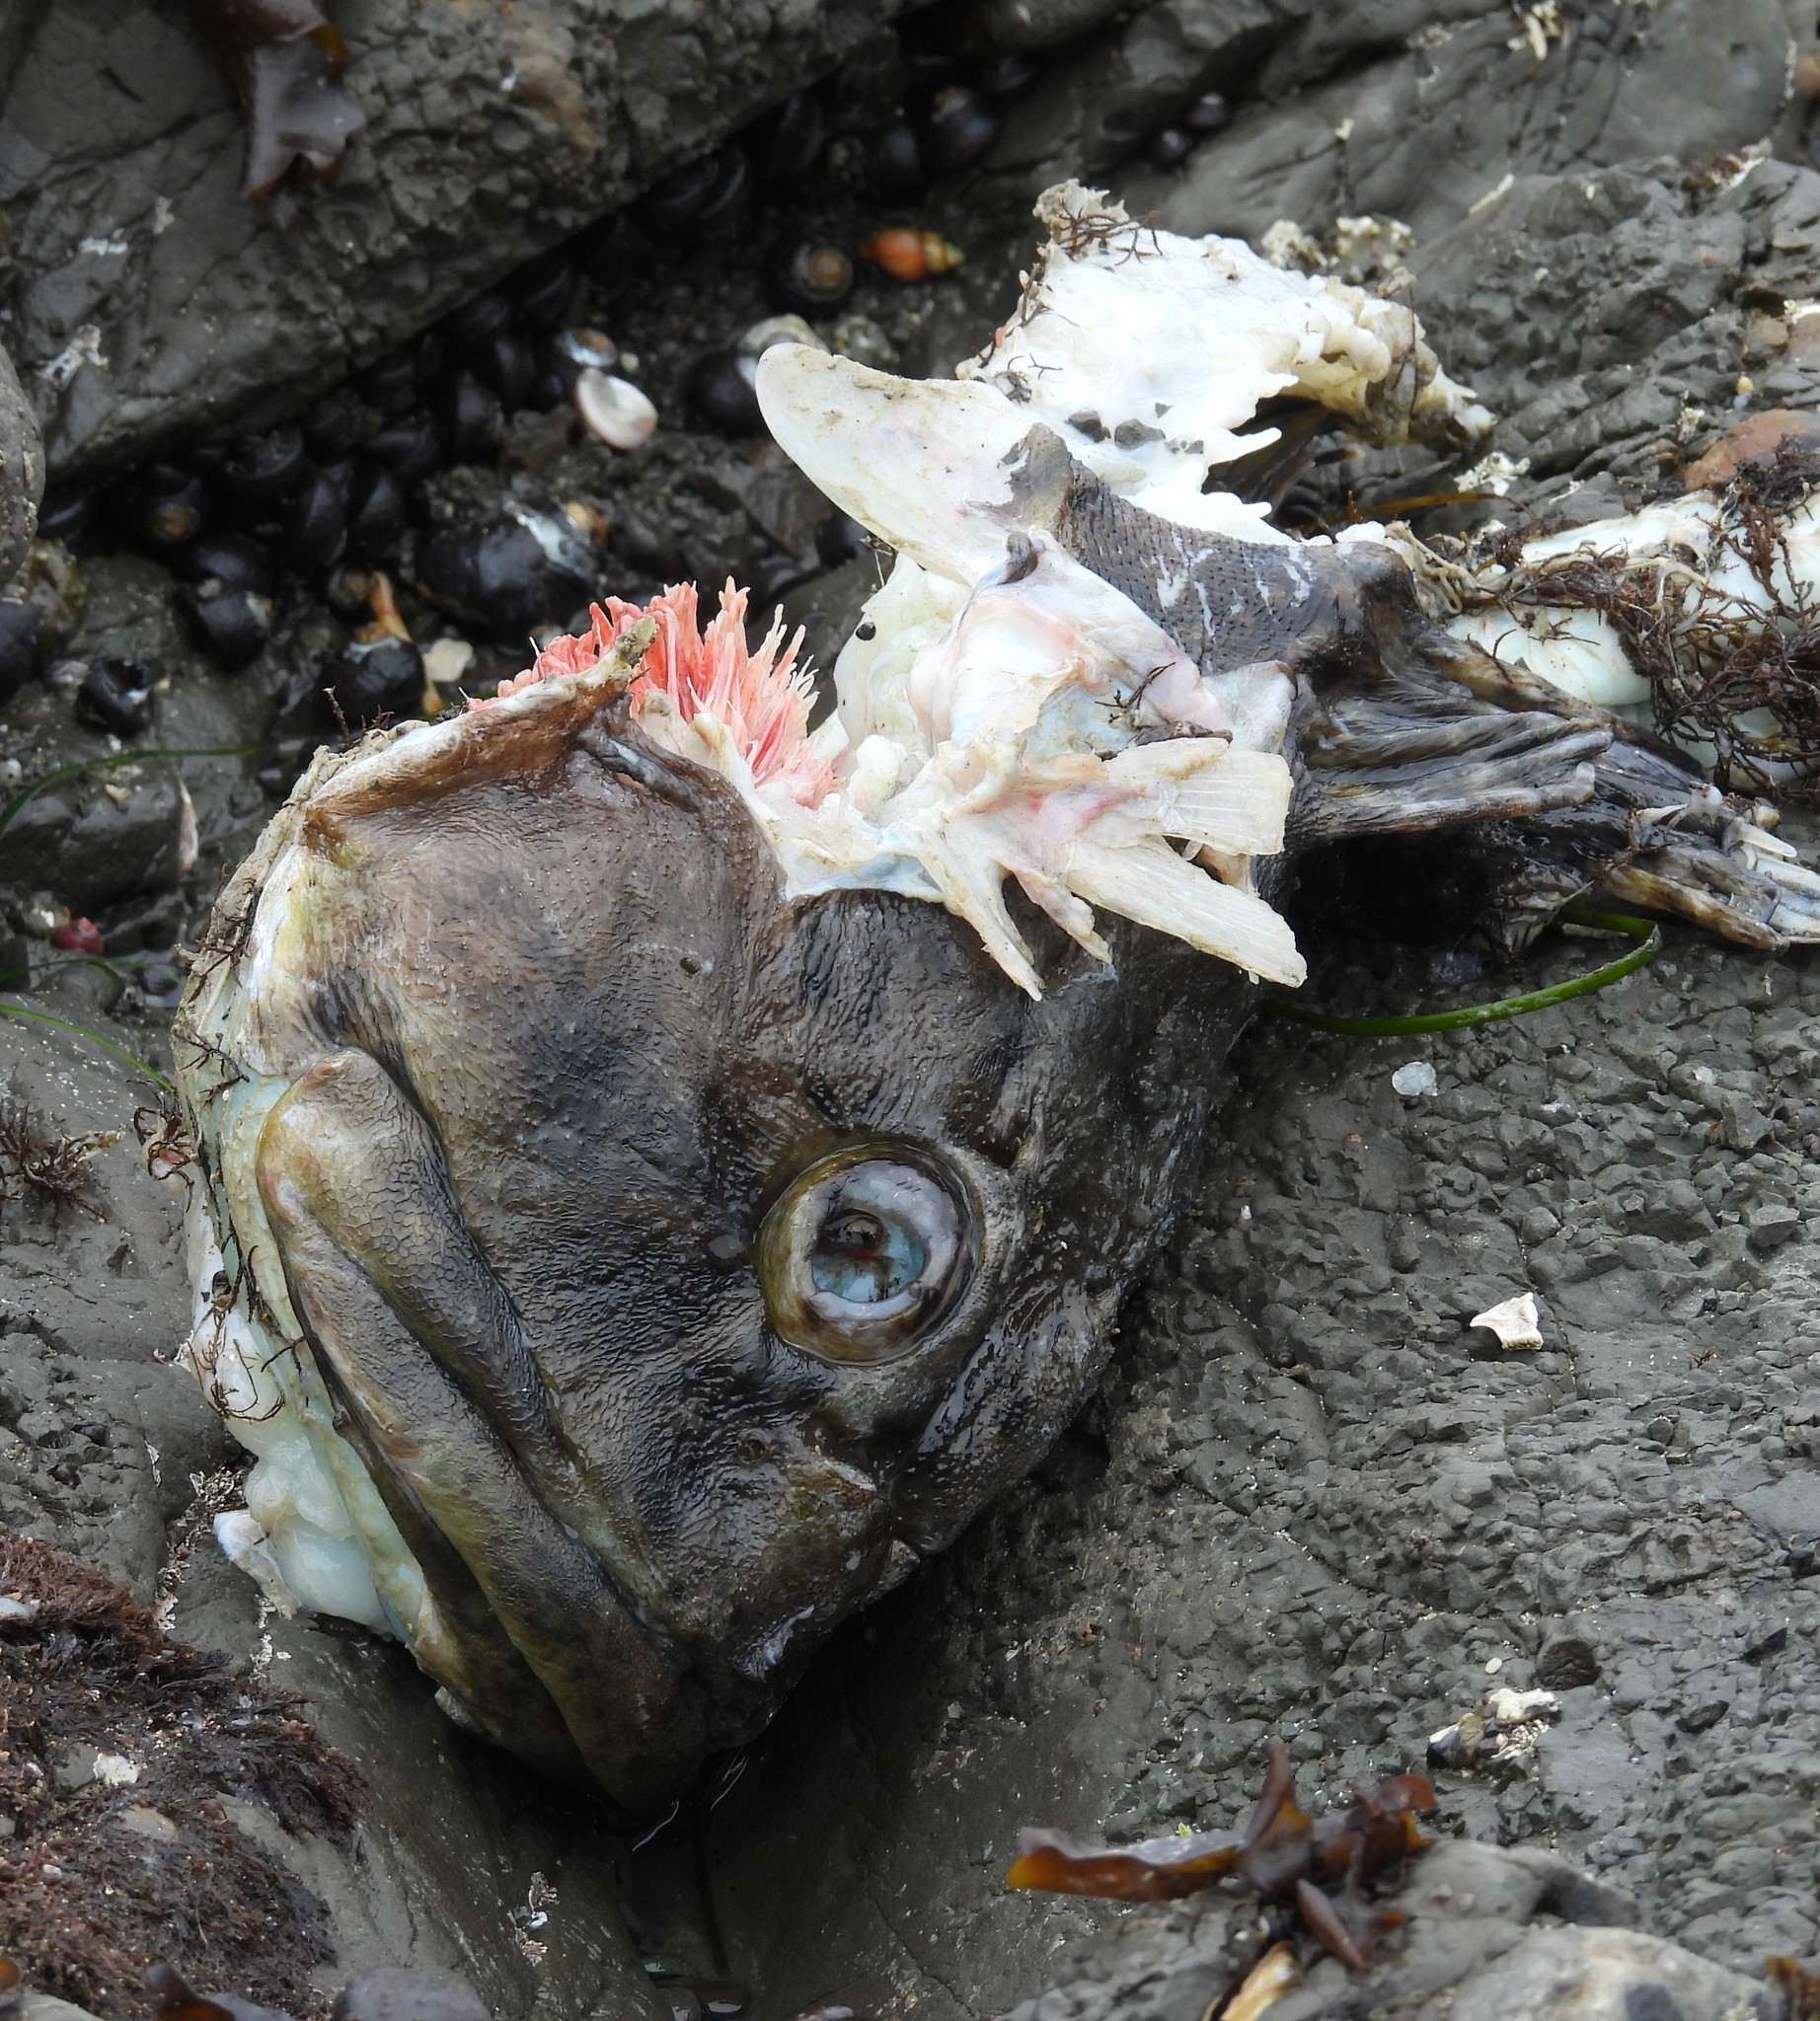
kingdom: Animalia
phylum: Chordata
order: Scorpaeniformes
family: Cottidae
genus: Scorpaenichthys
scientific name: Scorpaenichthys marmoratus
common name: Cabezon
